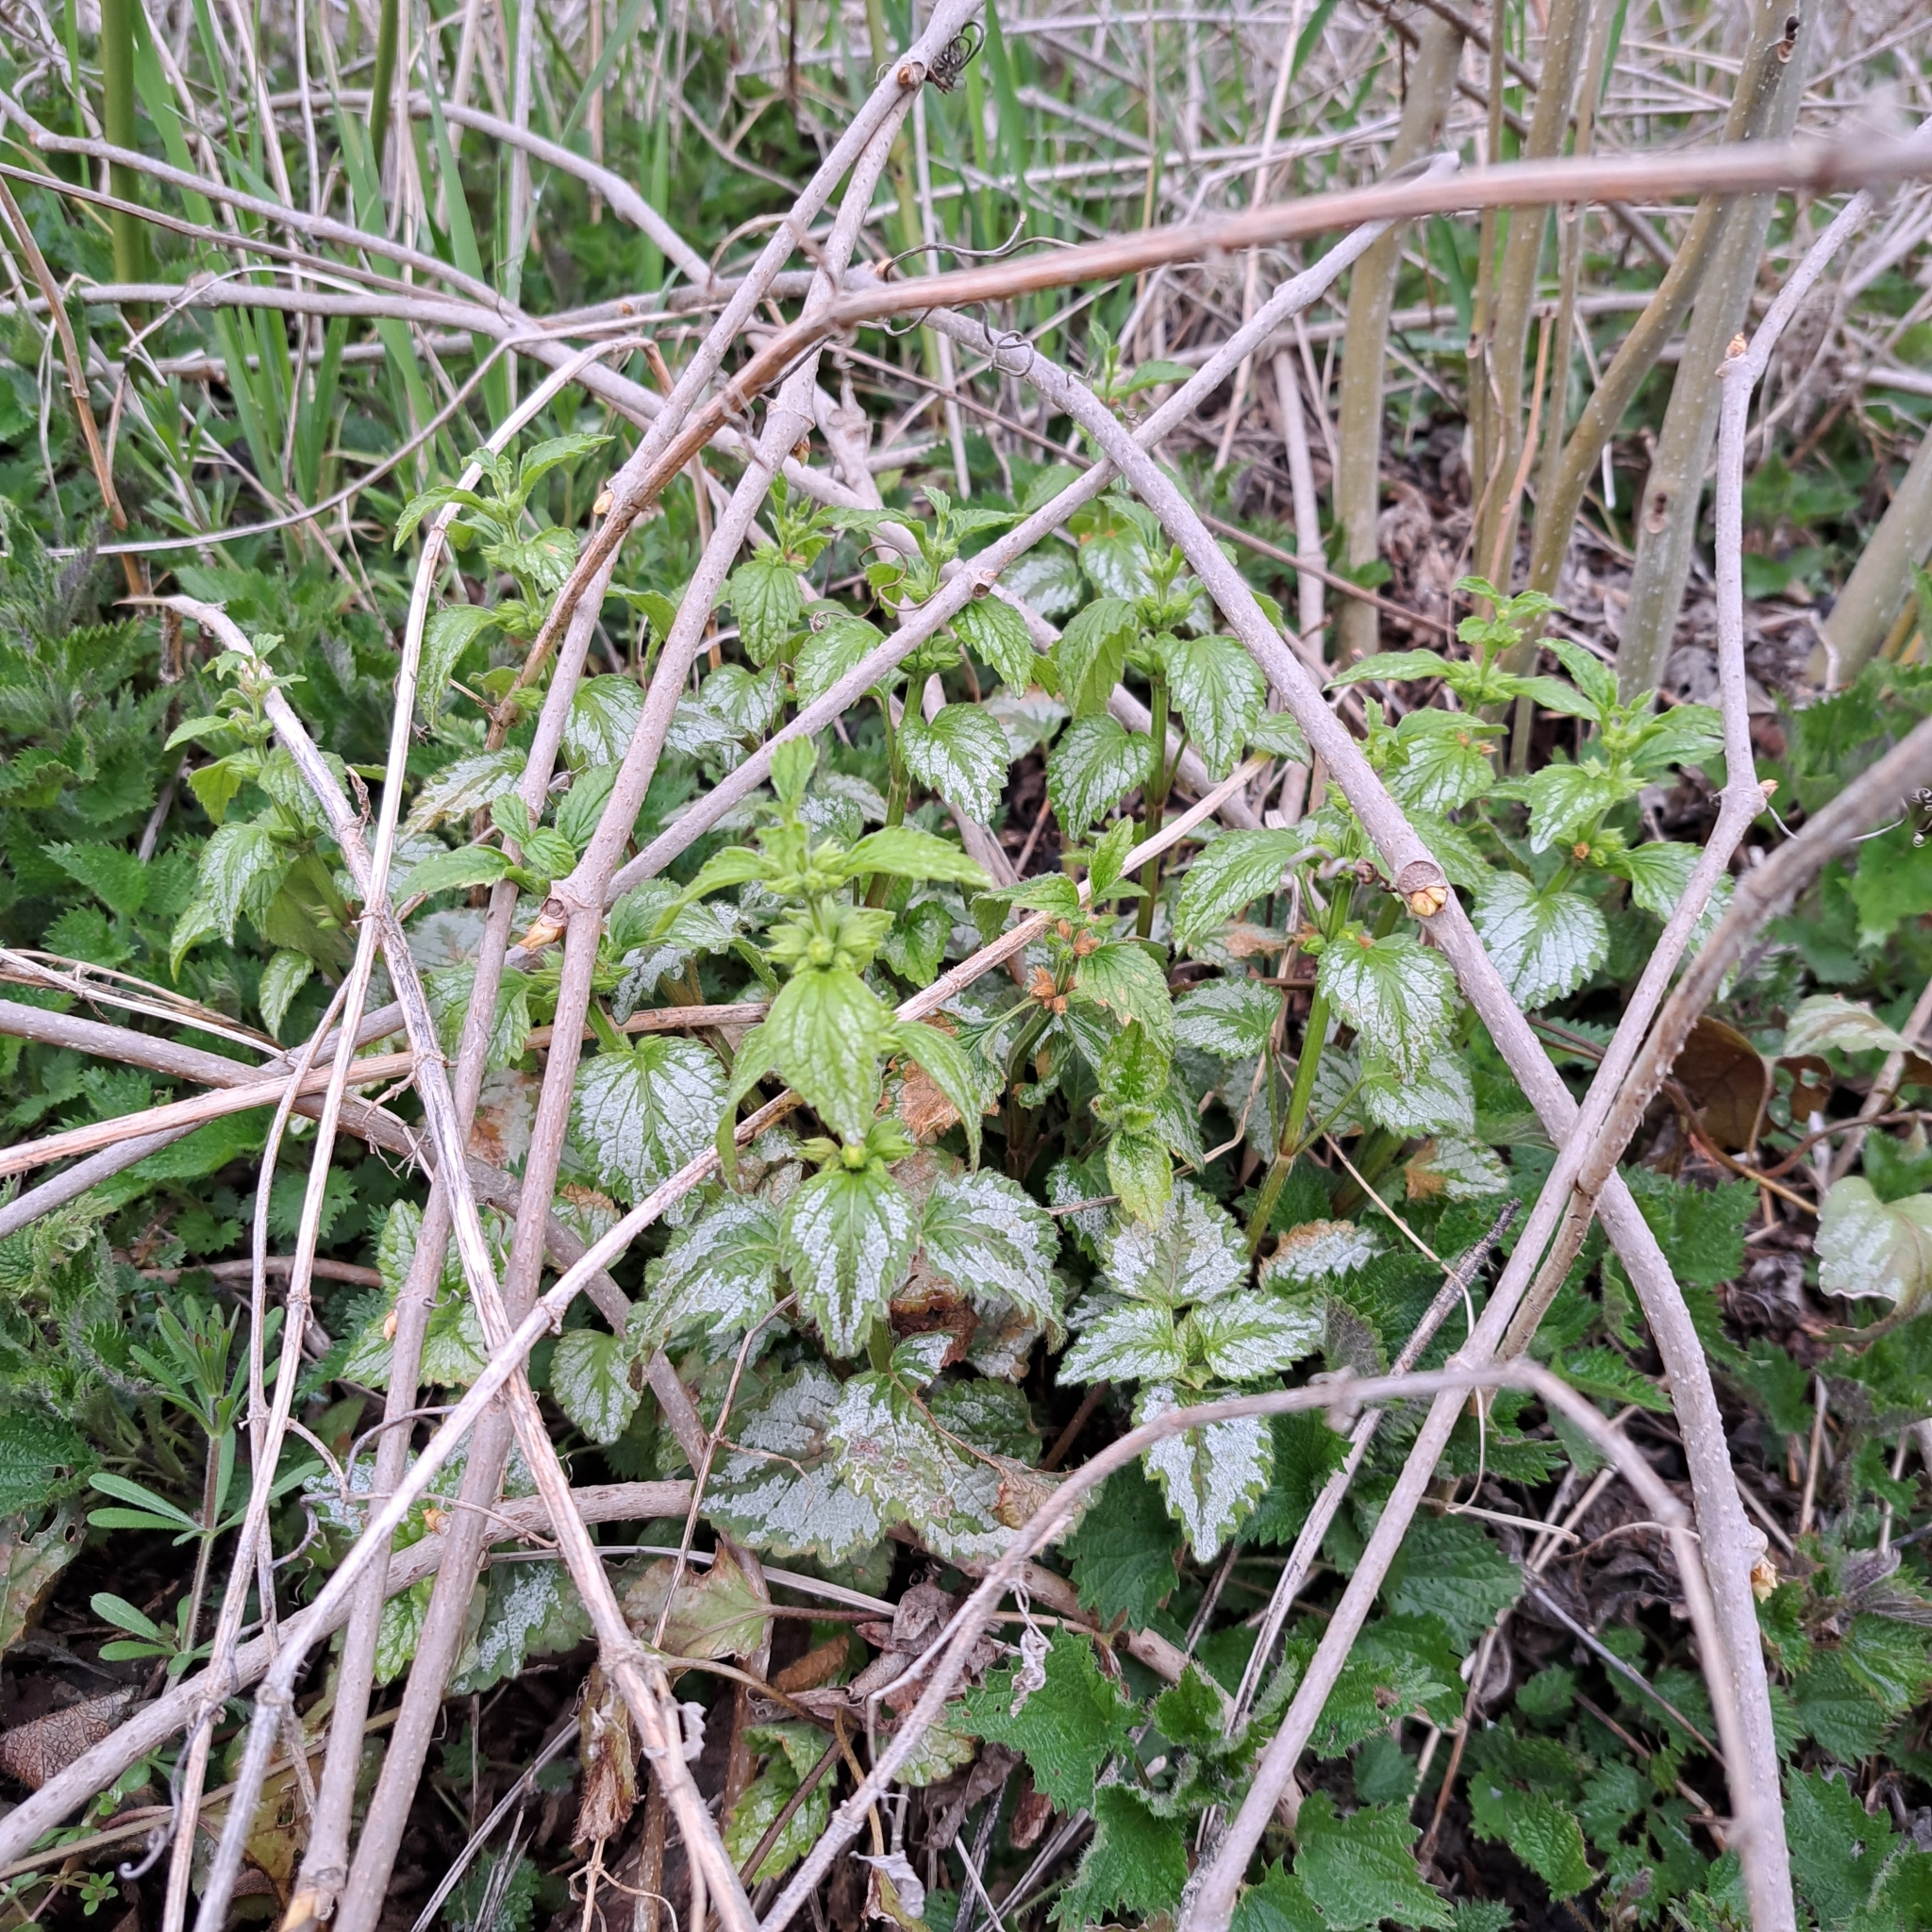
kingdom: Plantae
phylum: Tracheophyta
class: Magnoliopsida
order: Lamiales
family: Lamiaceae
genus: Lamium
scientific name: Lamium galeobdolon
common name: Yellow archangel
